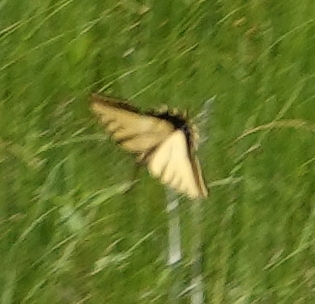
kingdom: Animalia
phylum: Arthropoda
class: Insecta
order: Lepidoptera
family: Papilionidae
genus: Papilio
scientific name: Papilio multicaudata
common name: Two-tailed tiger swallowtail
